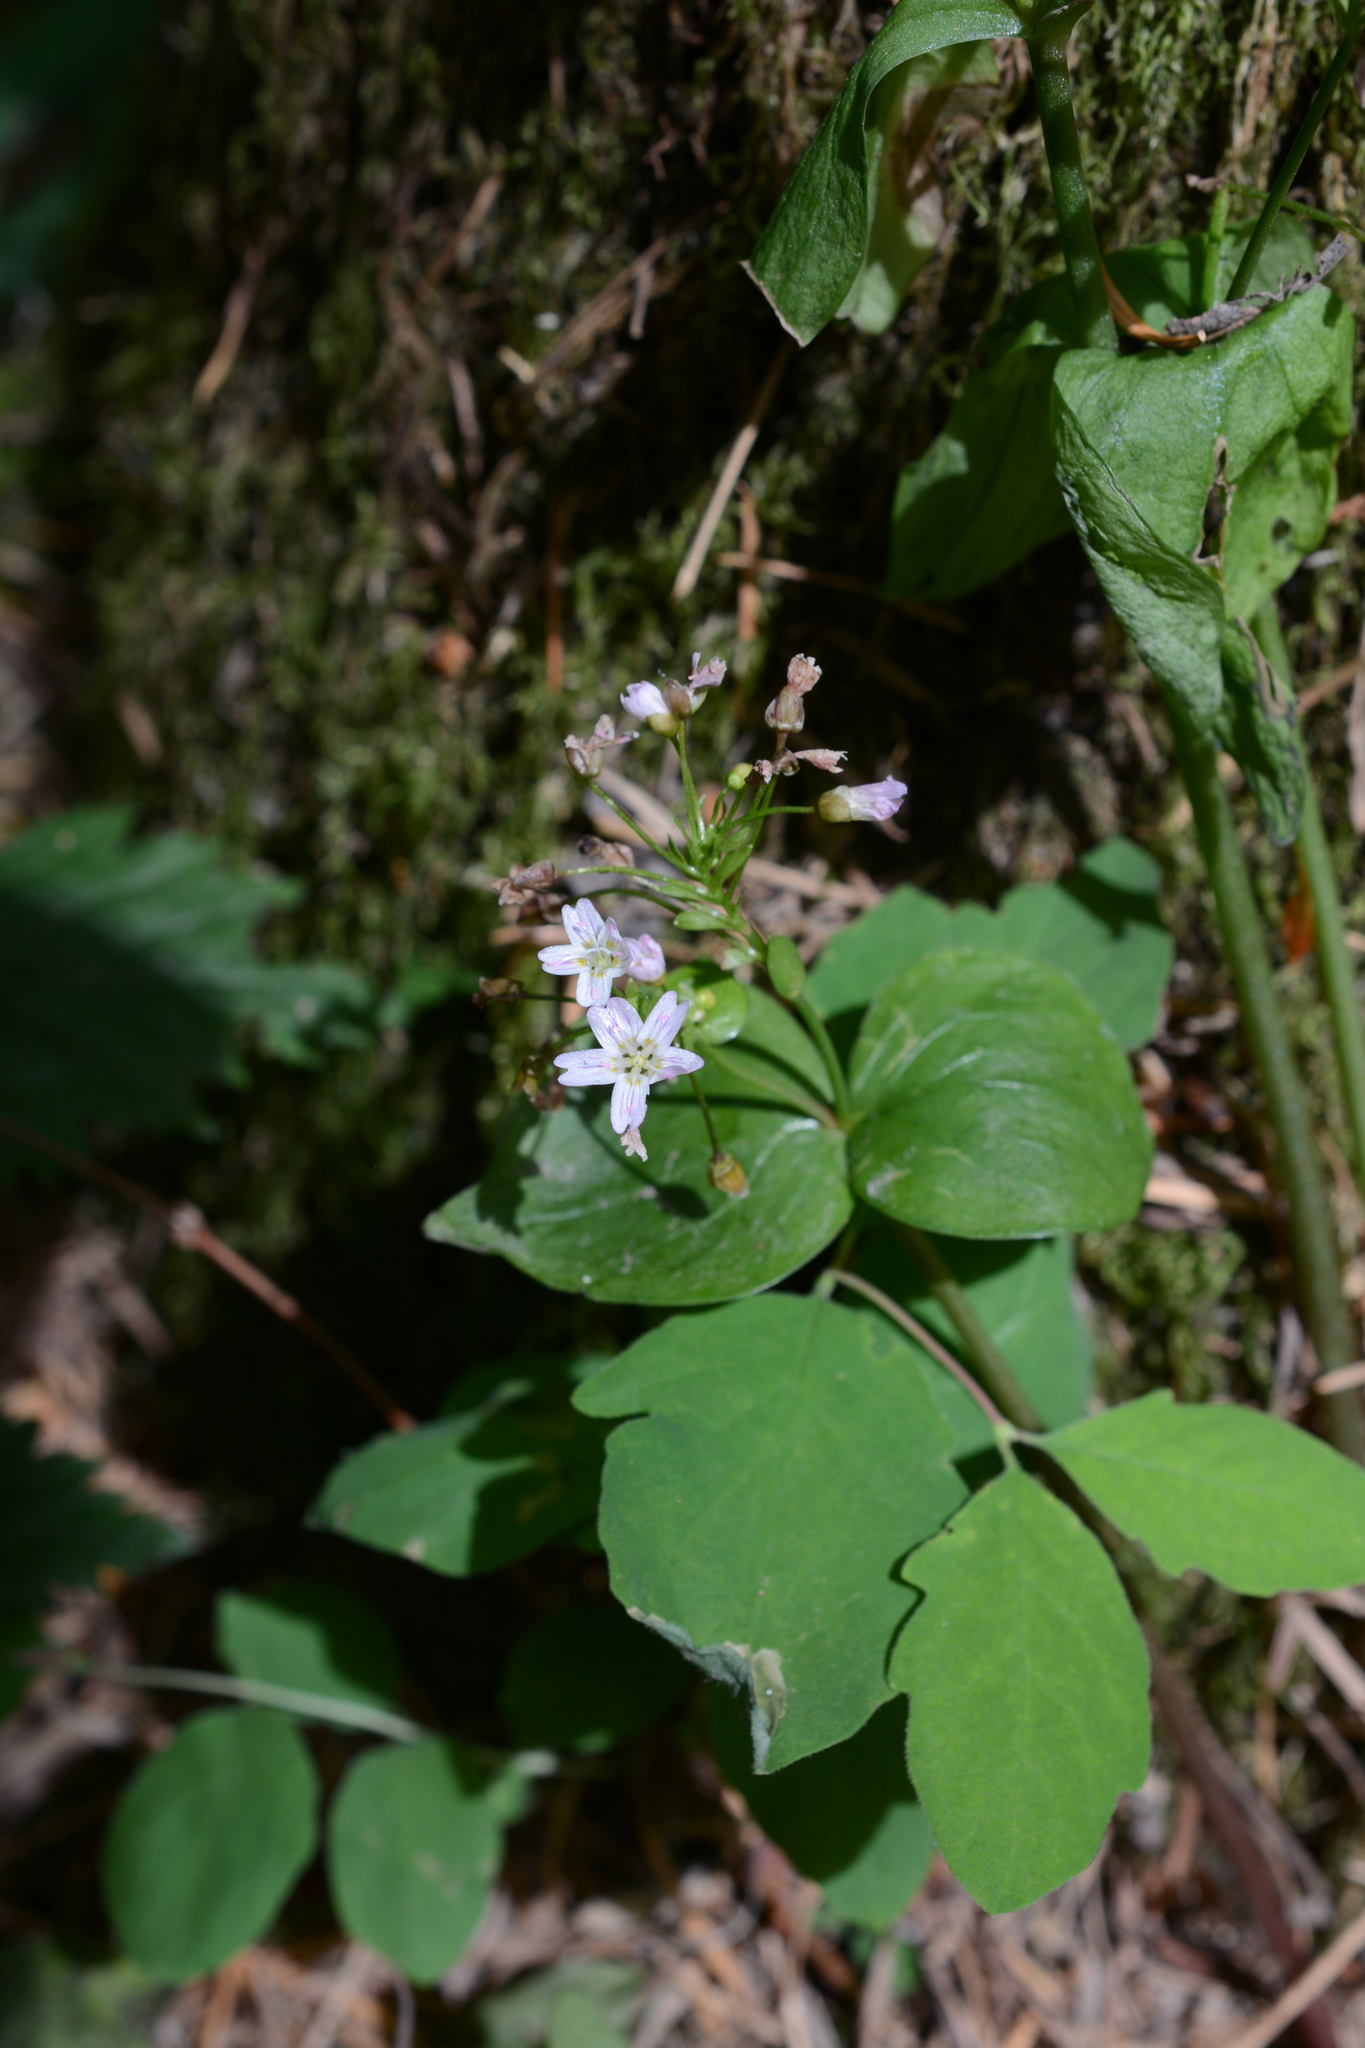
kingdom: Plantae
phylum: Tracheophyta
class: Magnoliopsida
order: Caryophyllales
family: Montiaceae
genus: Claytonia
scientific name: Claytonia sibirica
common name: Pink purslane
